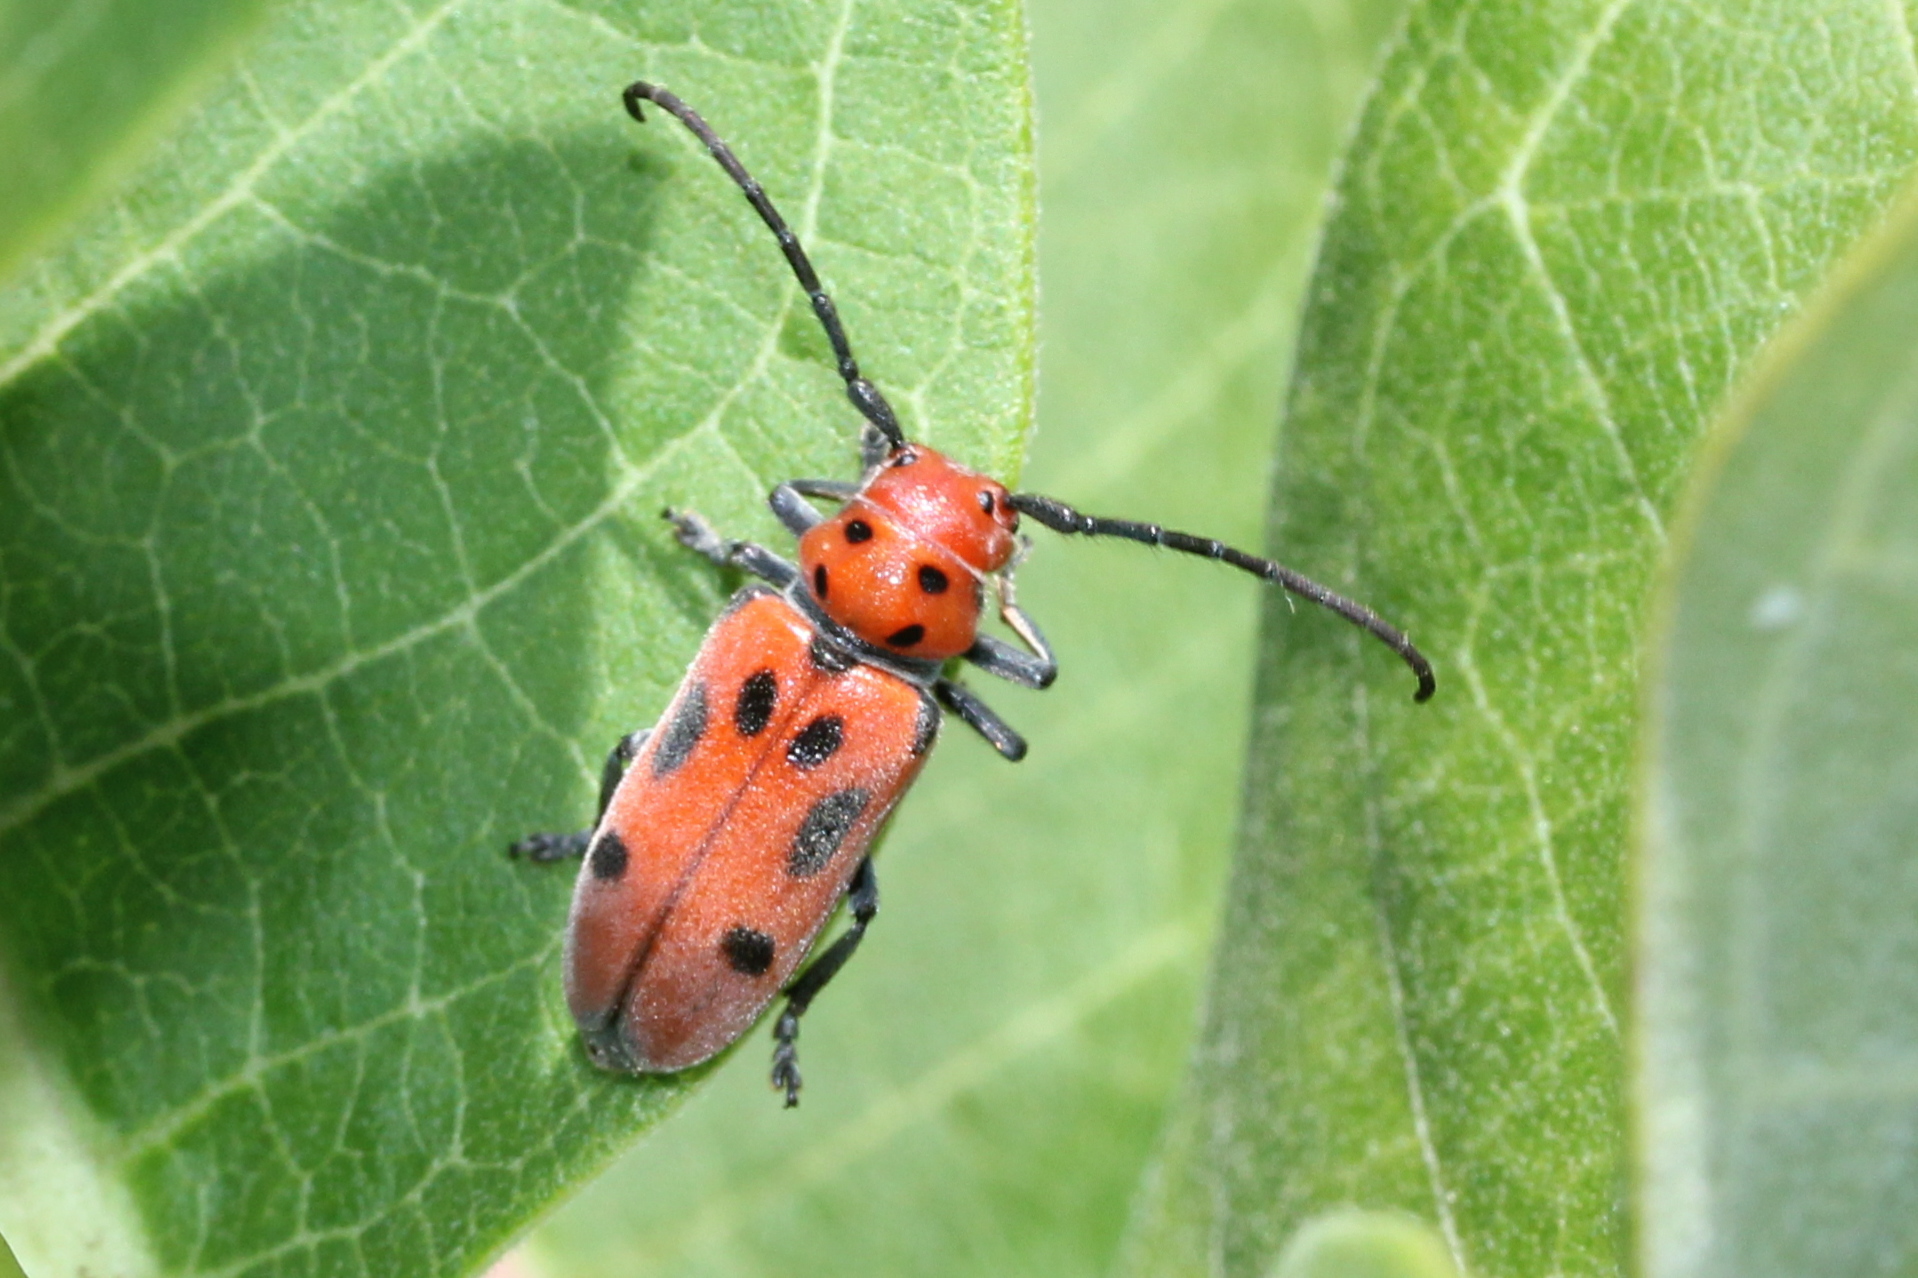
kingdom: Animalia
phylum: Arthropoda
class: Insecta
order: Coleoptera
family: Cerambycidae
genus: Tetraopes
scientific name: Tetraopes tetrophthalmus
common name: Red milkweed beetle
